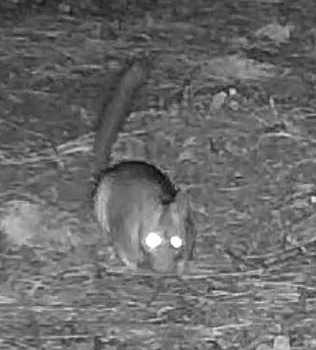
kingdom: Animalia
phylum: Chordata
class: Mammalia
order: Rodentia
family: Cricetidae
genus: Neotoma
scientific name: Neotoma cinerea
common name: Bushy-tailed woodrat
